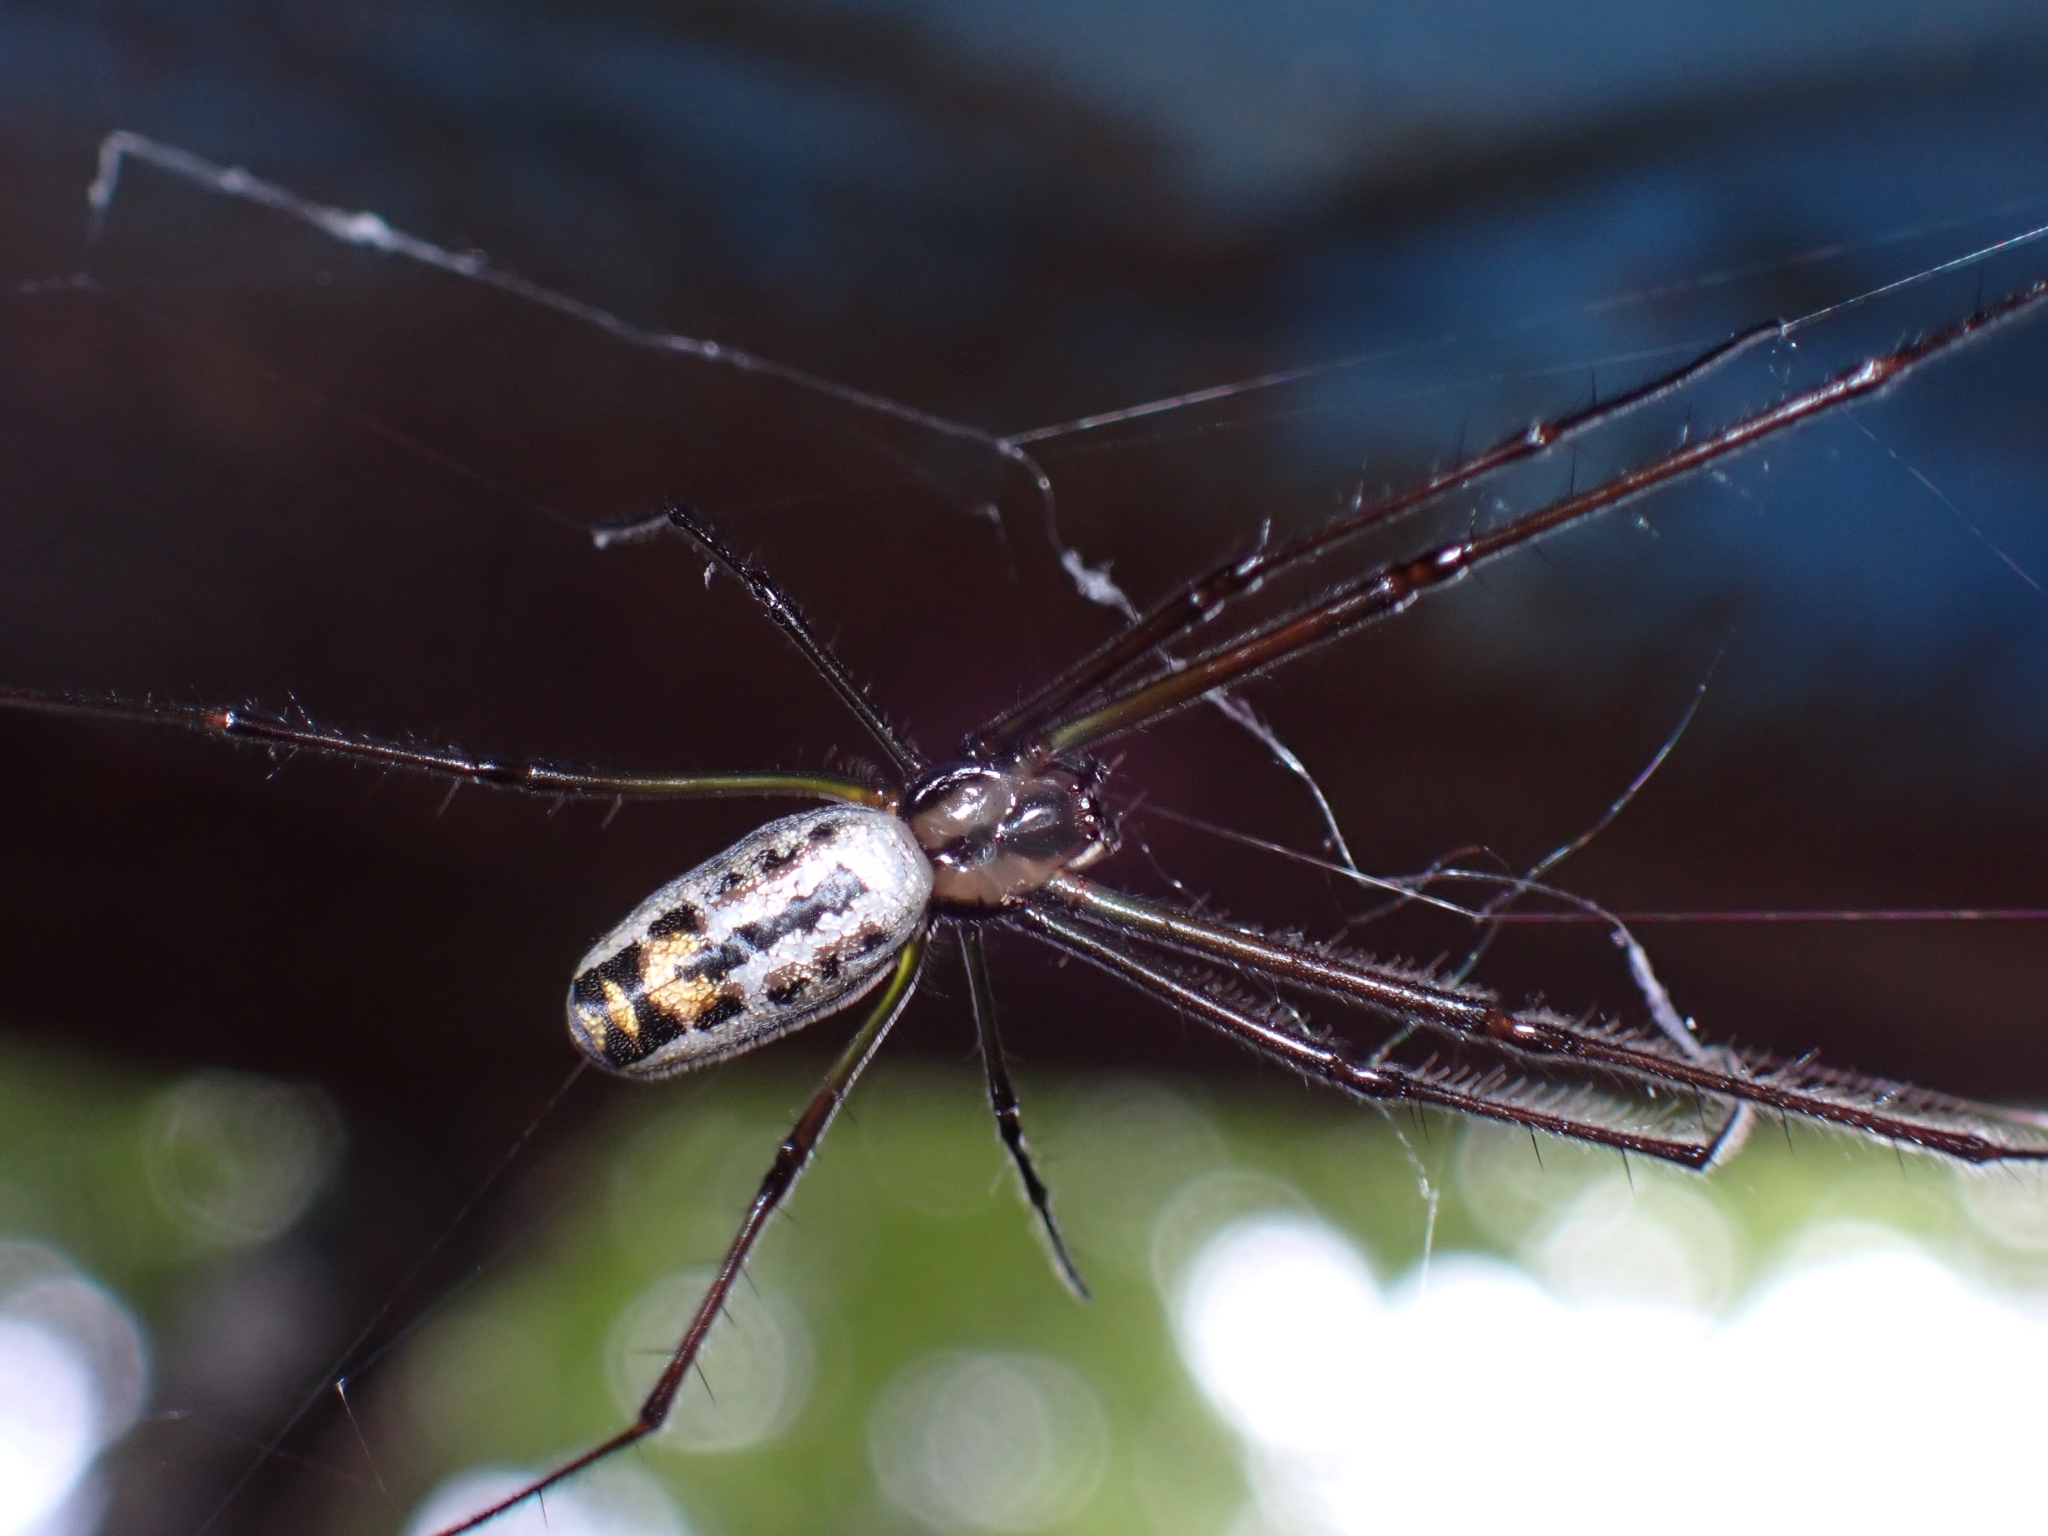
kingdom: Animalia
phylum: Arthropoda
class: Arachnida
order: Araneae
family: Tetragnathidae
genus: Leucauge
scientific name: Leucauge hebridisiana
